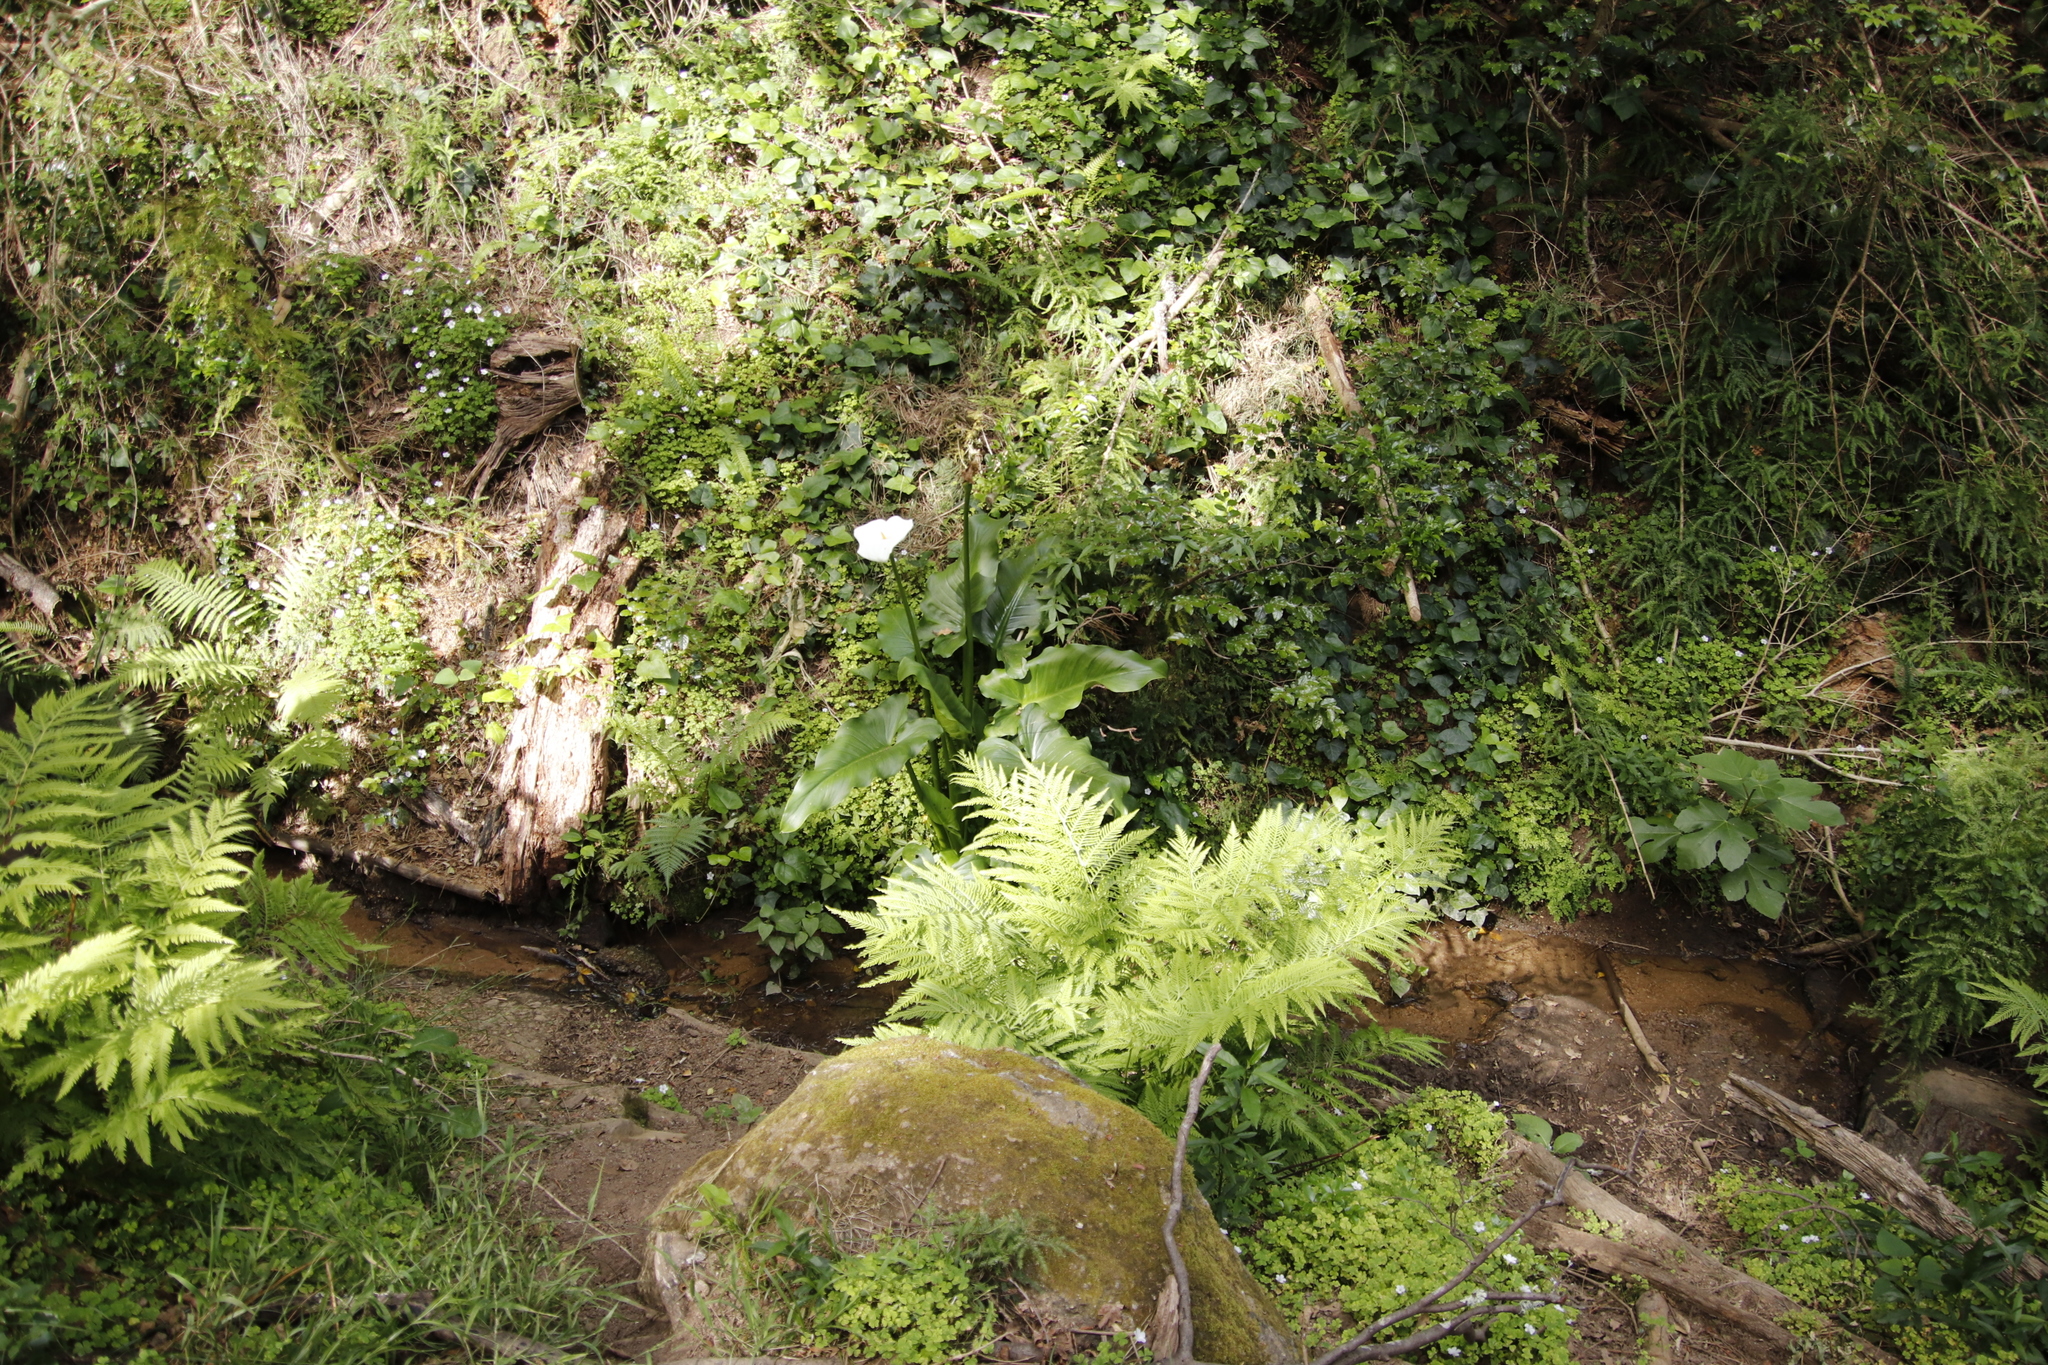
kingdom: Plantae
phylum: Tracheophyta
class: Liliopsida
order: Alismatales
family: Araceae
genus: Zantedeschia
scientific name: Zantedeschia aethiopica
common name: Altar-lily
